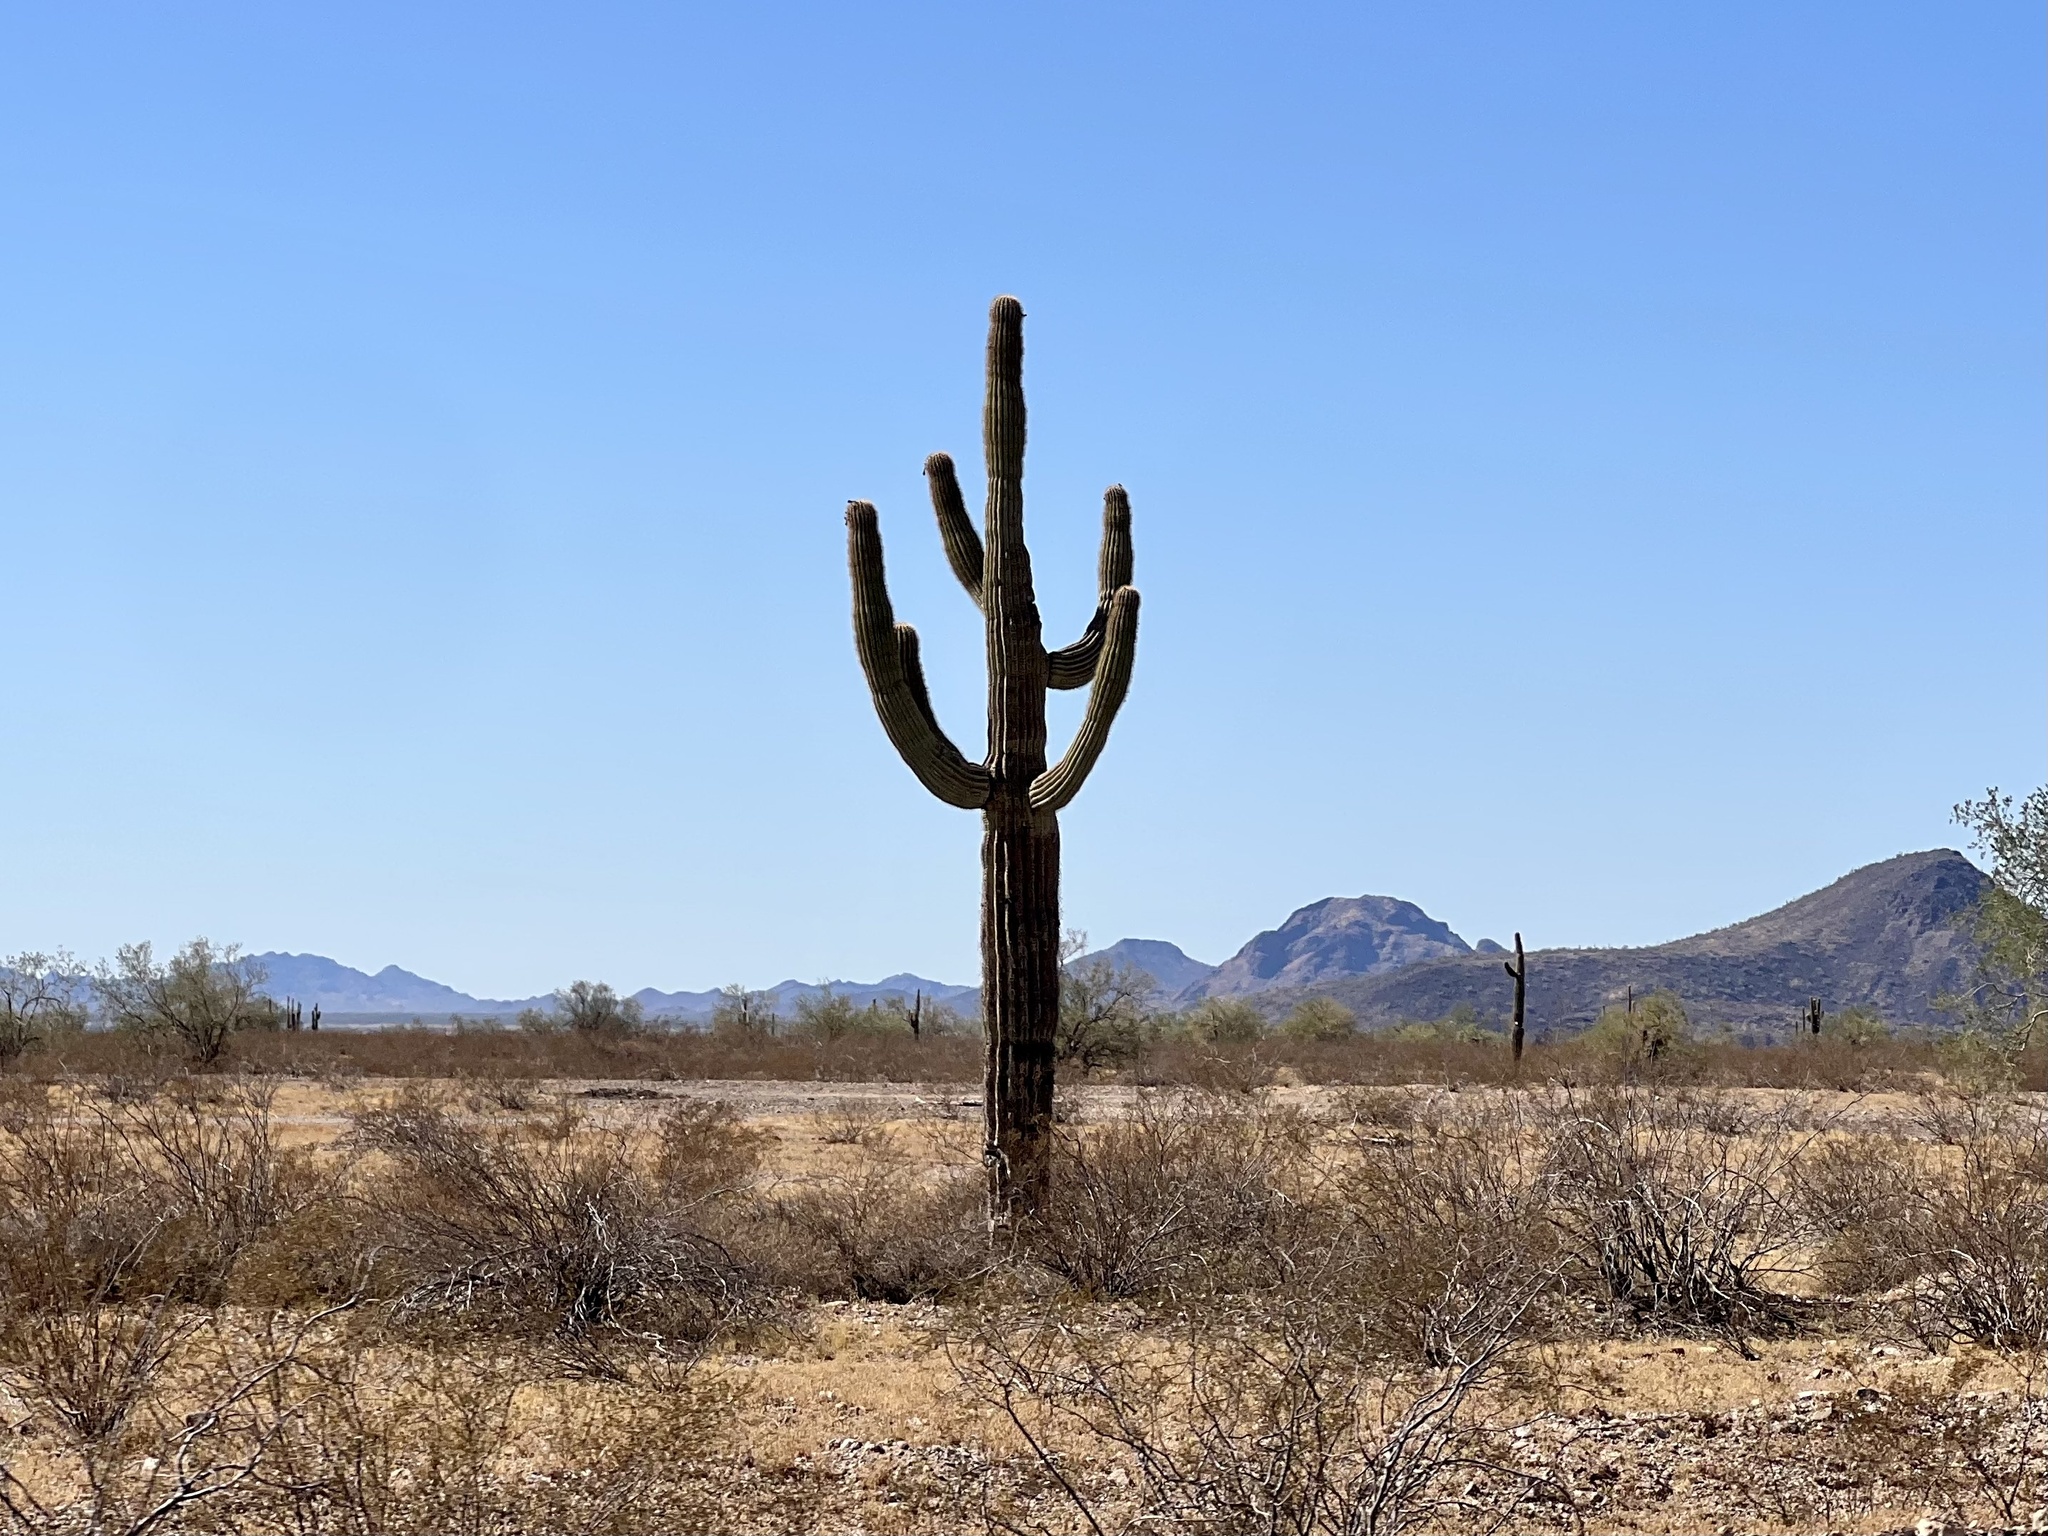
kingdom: Plantae
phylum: Tracheophyta
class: Magnoliopsida
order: Caryophyllales
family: Cactaceae
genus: Carnegiea
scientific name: Carnegiea gigantea
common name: Saguaro
